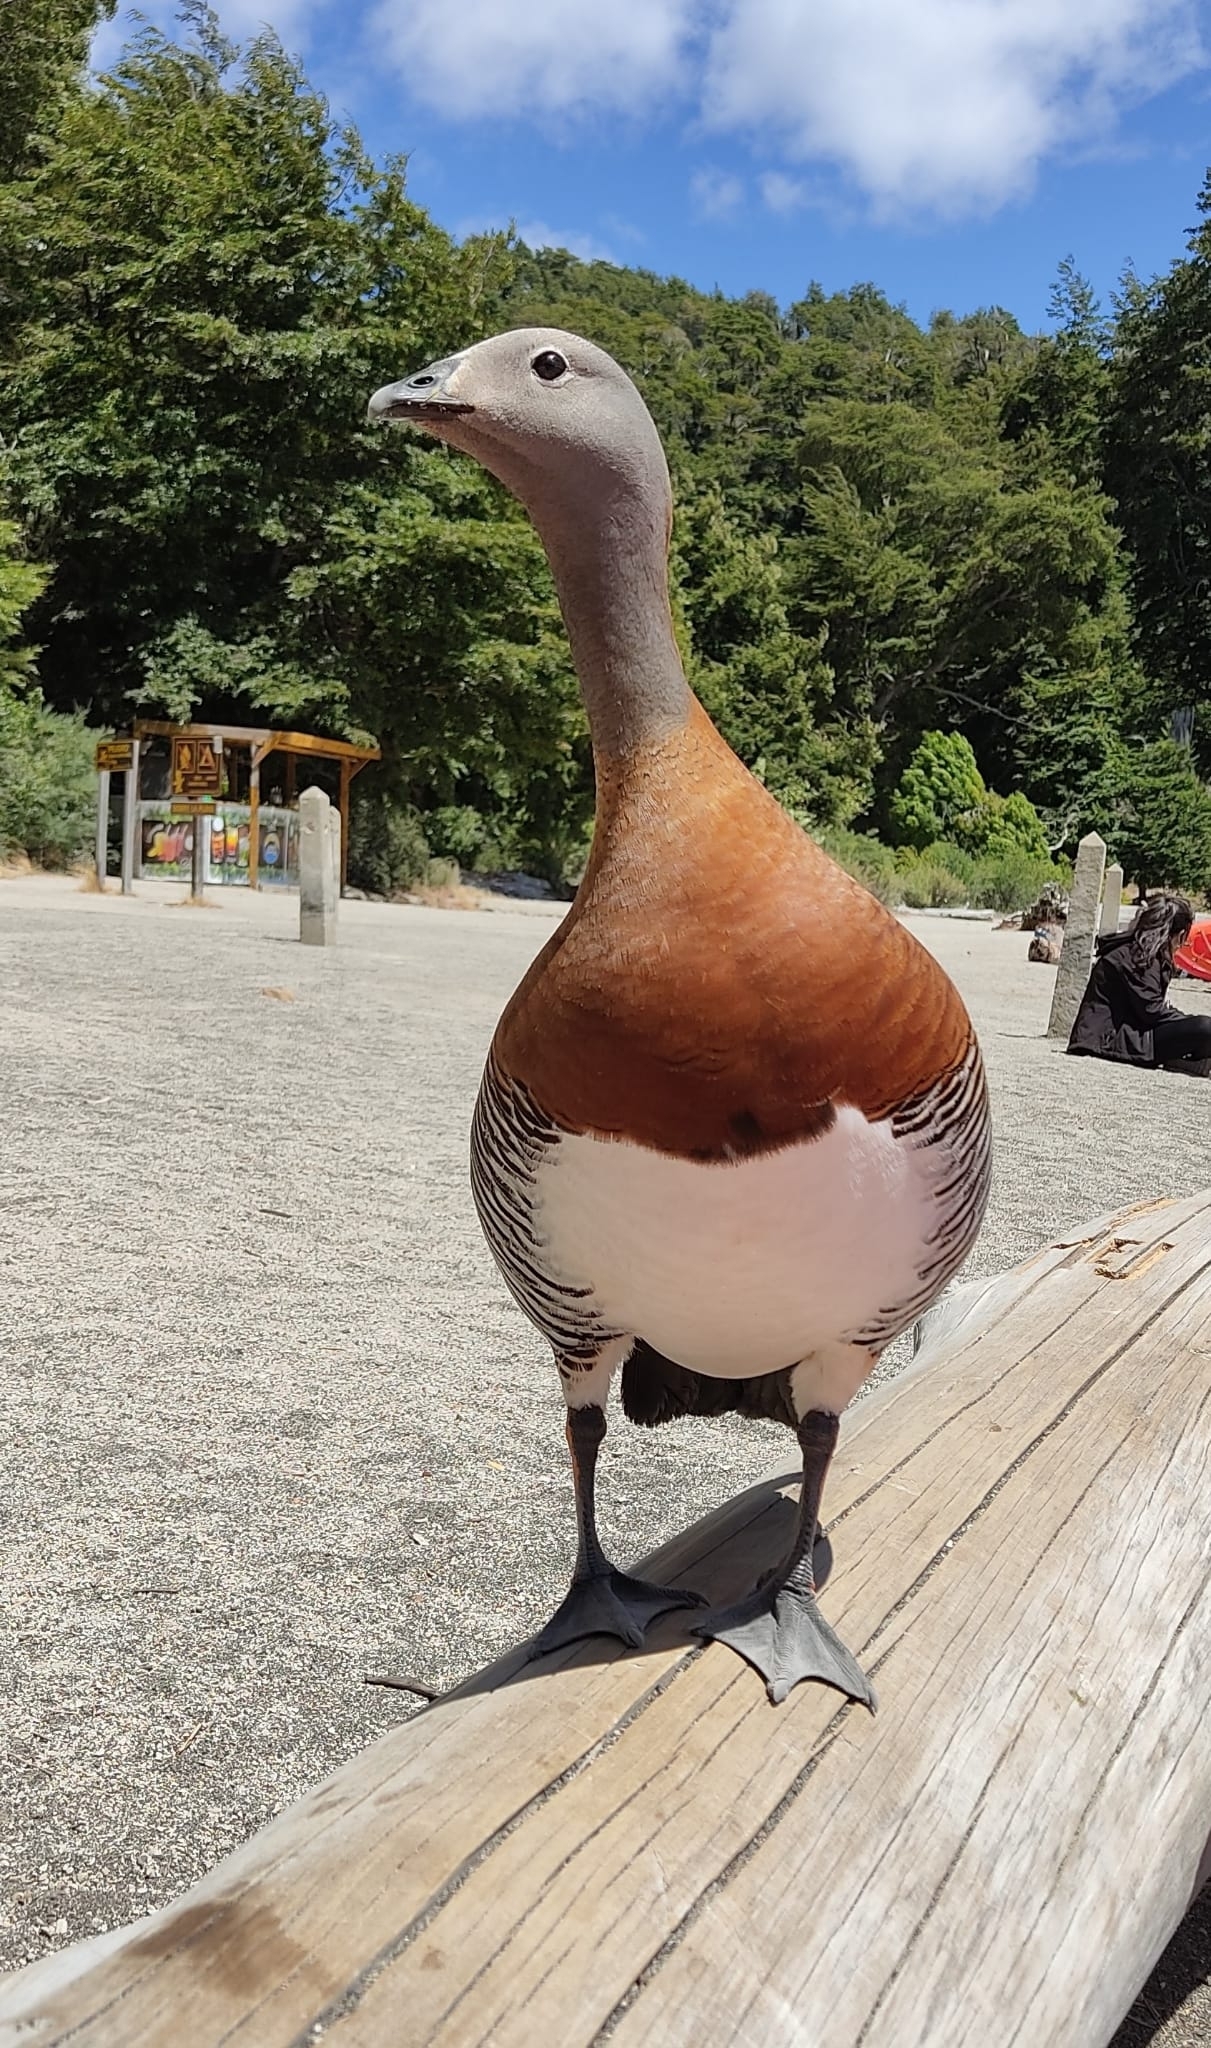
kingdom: Animalia
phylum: Chordata
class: Aves
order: Anseriformes
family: Anatidae
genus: Chloephaga
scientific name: Chloephaga poliocephala
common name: Ashy-headed goose
